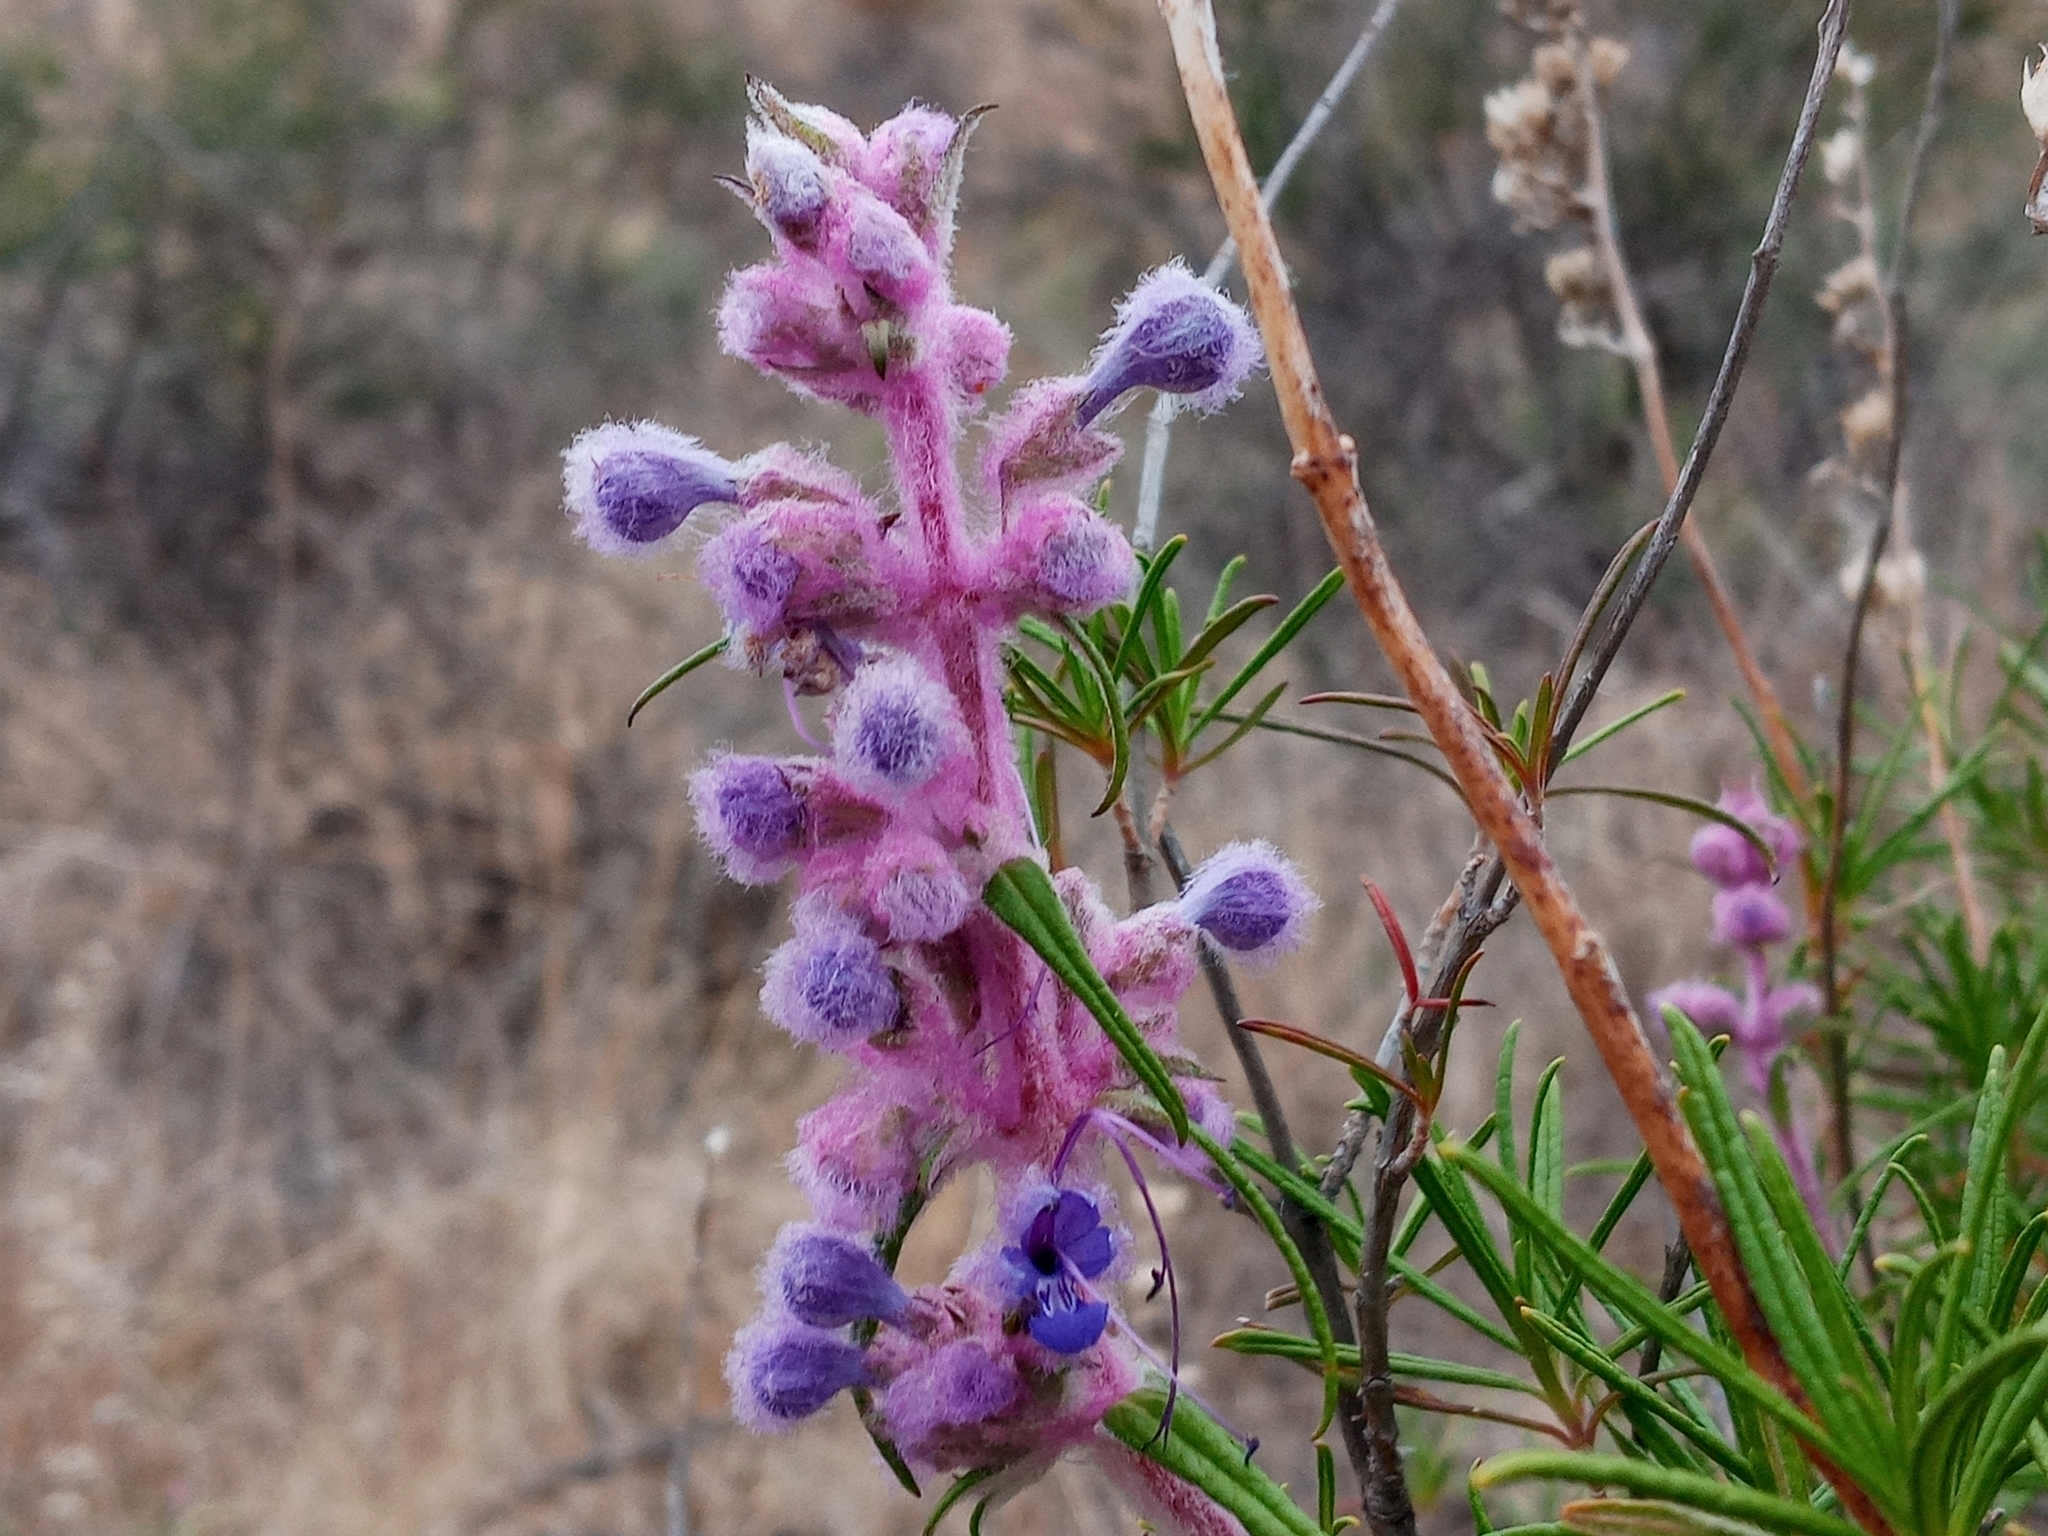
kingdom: Plantae
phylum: Tracheophyta
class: Magnoliopsida
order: Lamiales
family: Lamiaceae
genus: Trichostema
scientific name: Trichostema lanatum
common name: Woolly bluecurls
